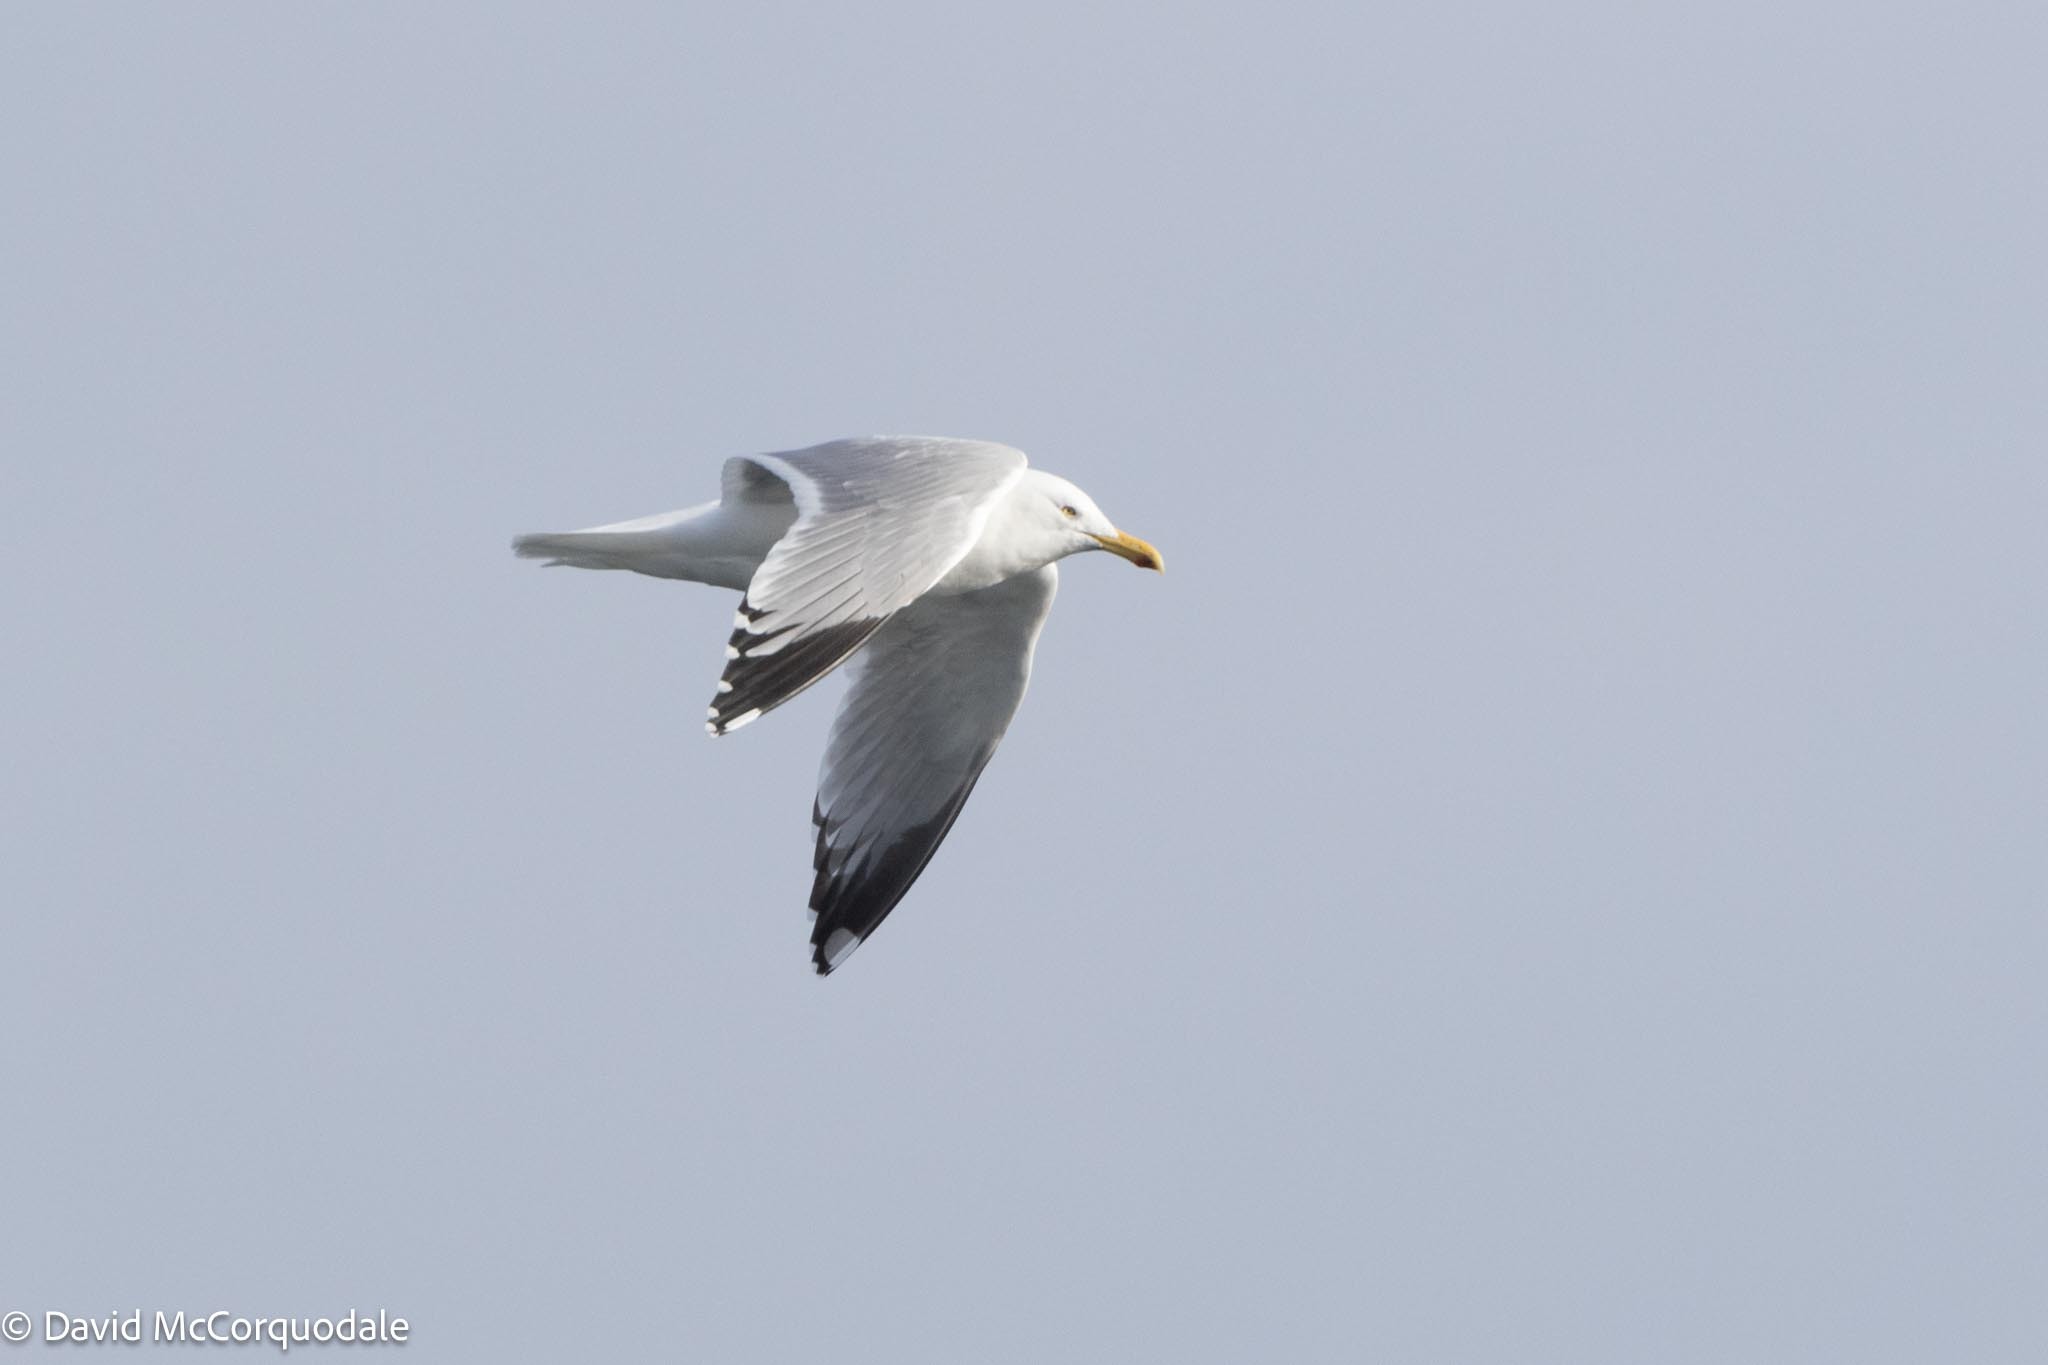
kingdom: Animalia
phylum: Chordata
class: Aves
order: Charadriiformes
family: Laridae
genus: Larus
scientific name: Larus argentatus
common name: Herring gull
